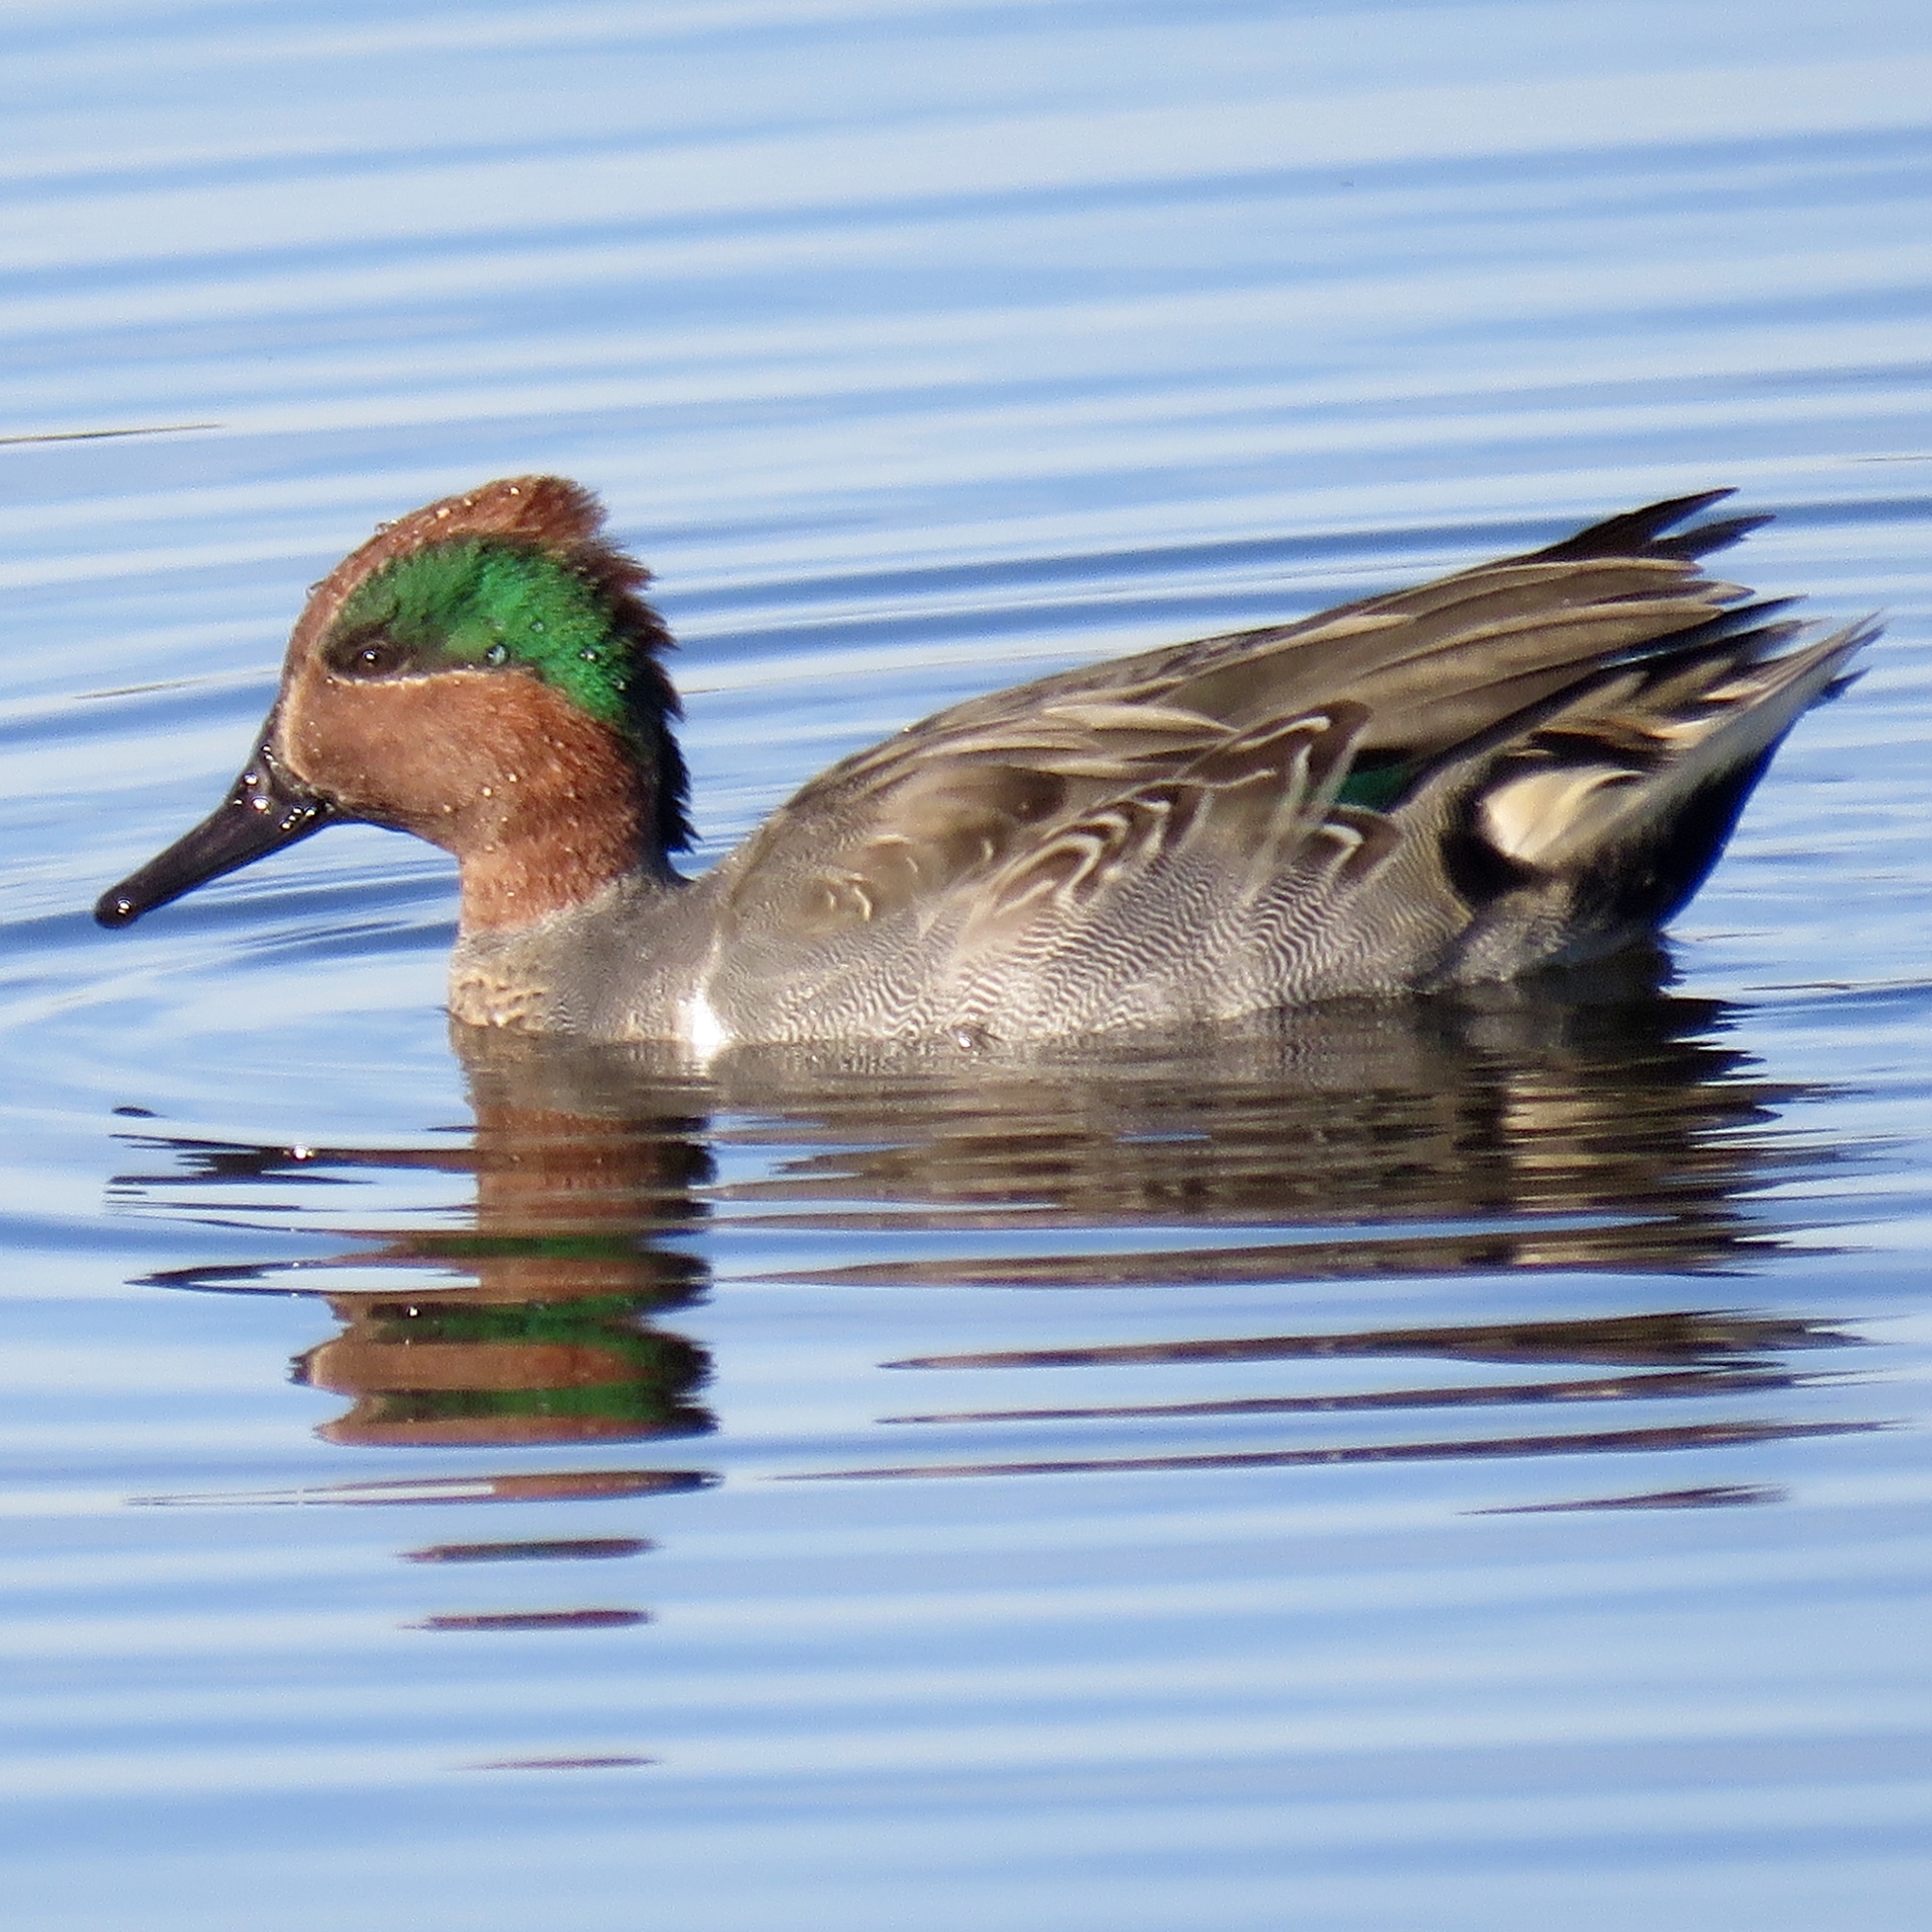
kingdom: Animalia
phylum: Chordata
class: Aves
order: Anseriformes
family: Anatidae
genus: Anas
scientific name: Anas crecca
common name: Eurasian teal
